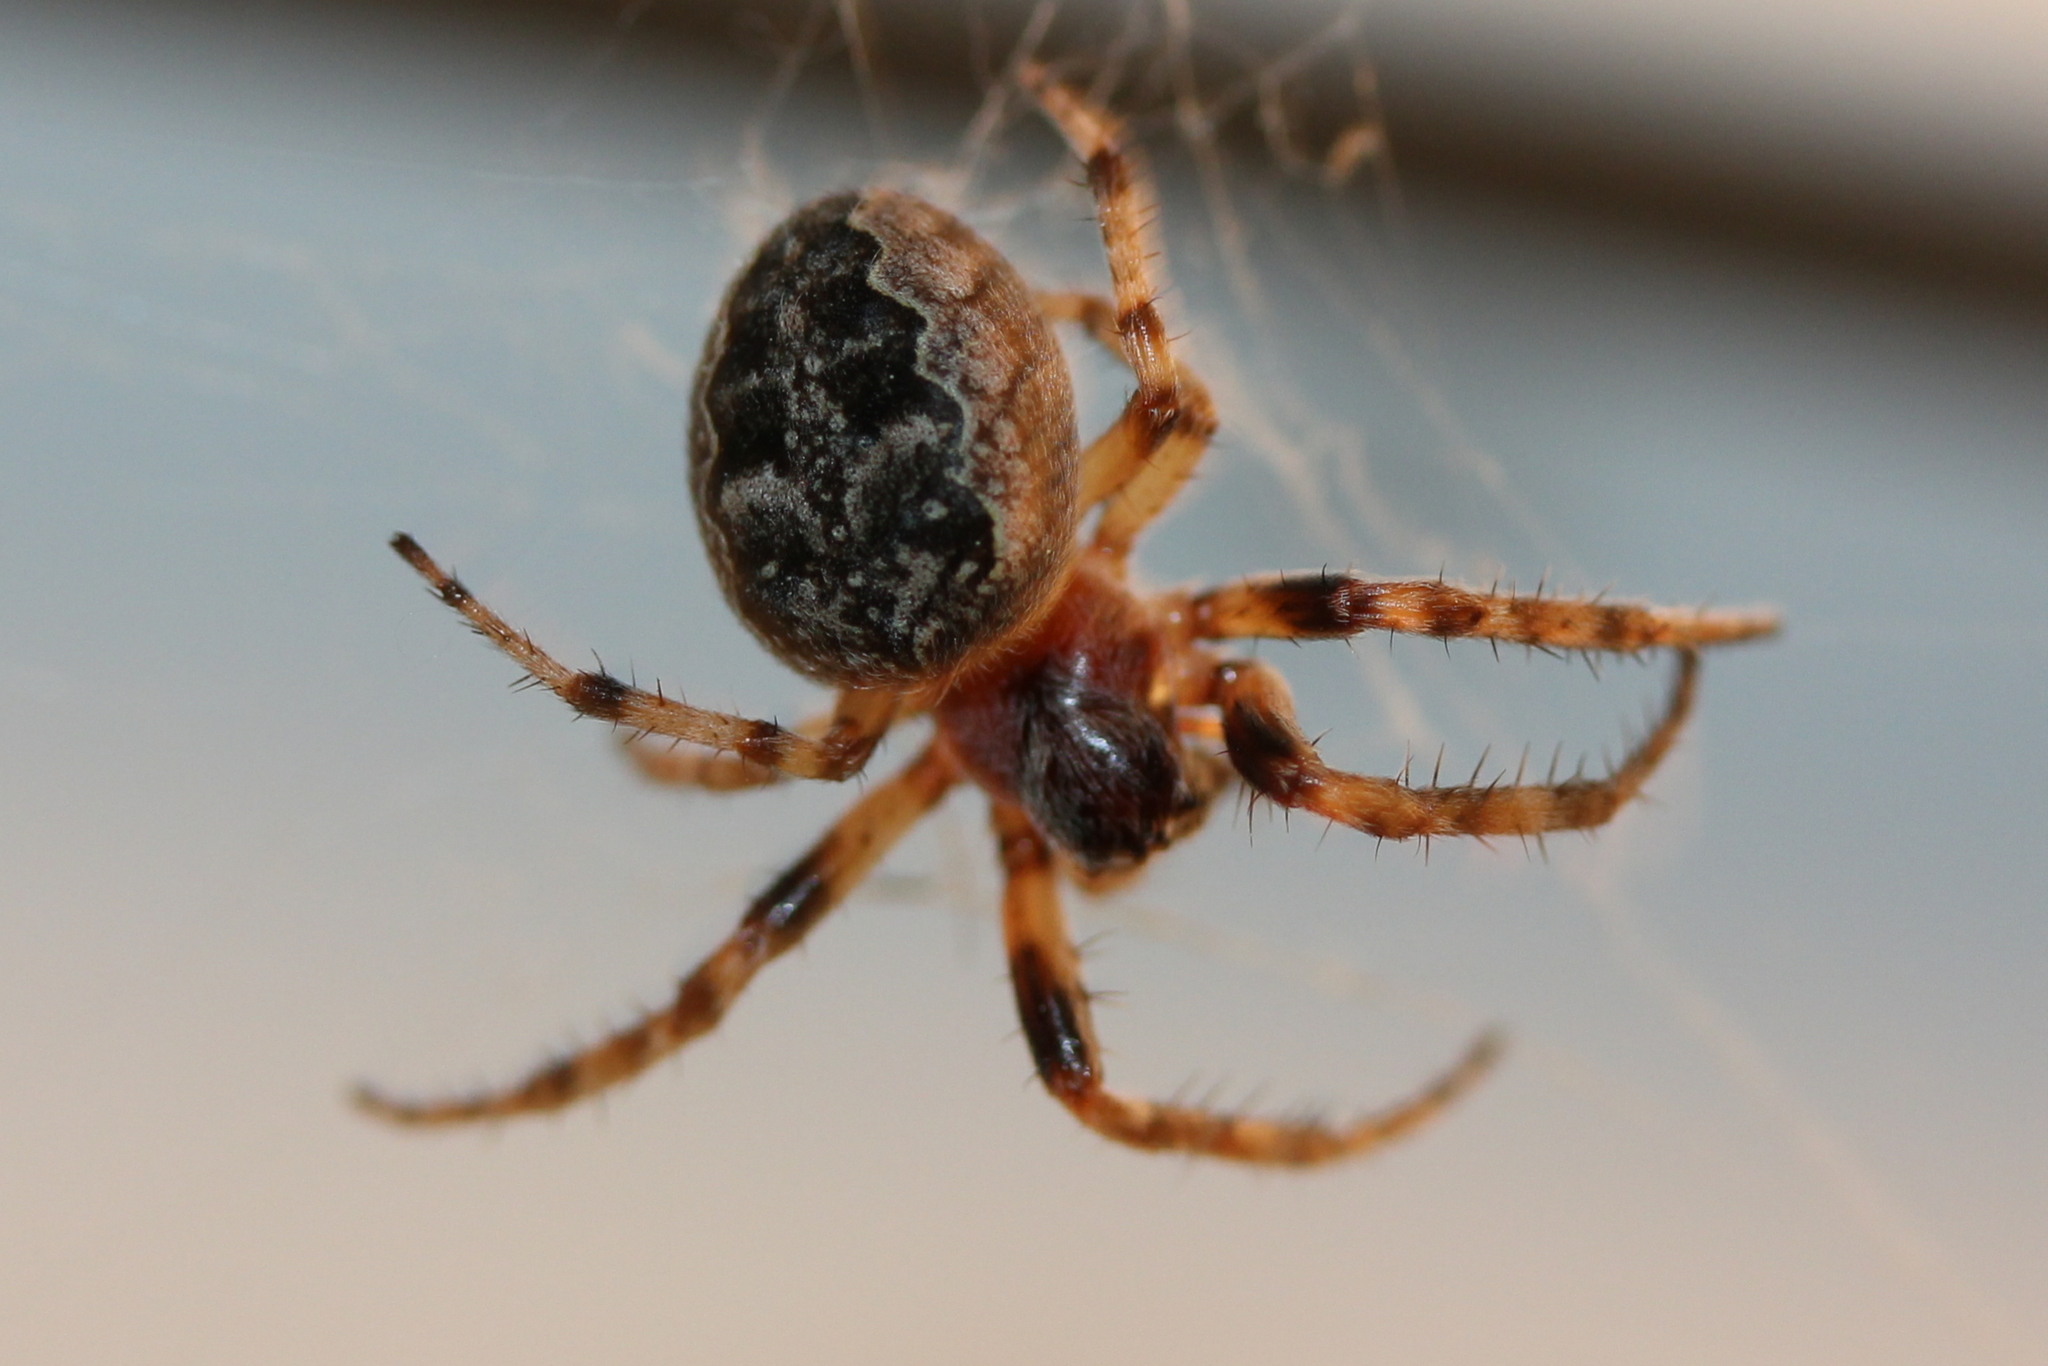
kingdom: Animalia
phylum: Arthropoda
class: Arachnida
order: Araneae
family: Araneidae
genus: Larinioides
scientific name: Larinioides cornutus
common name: Furrow orbweaver
